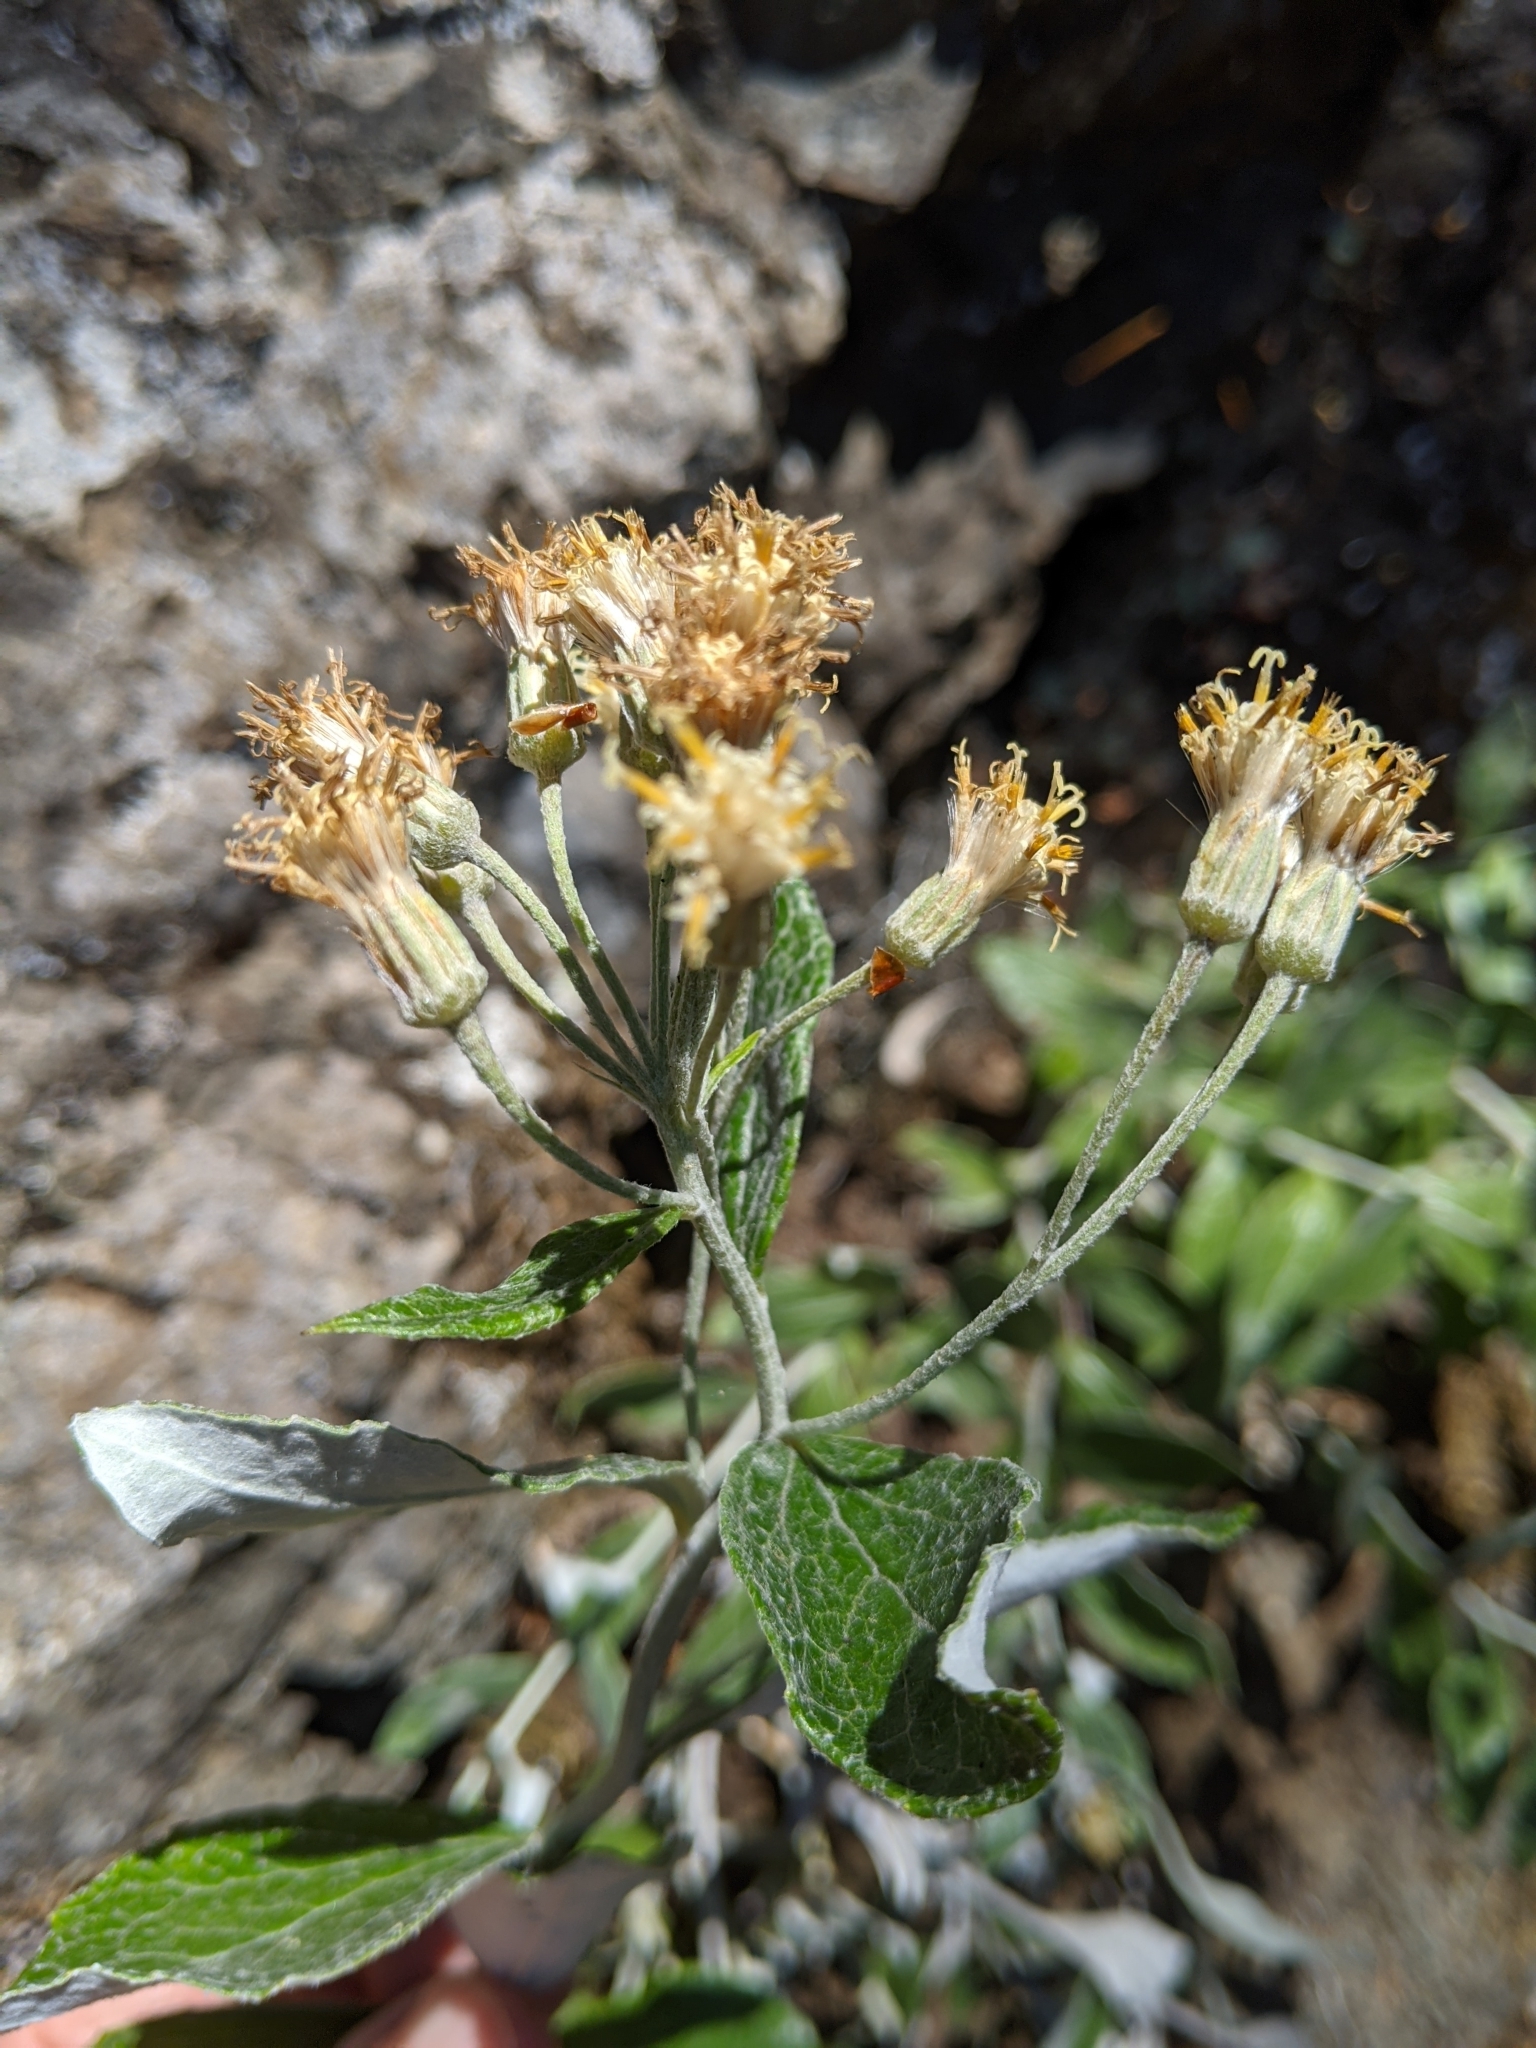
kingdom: Plantae
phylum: Tracheophyta
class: Magnoliopsida
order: Asterales
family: Asteraceae
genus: Luina
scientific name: Luina hypoleuca
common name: Little-leaved luina
